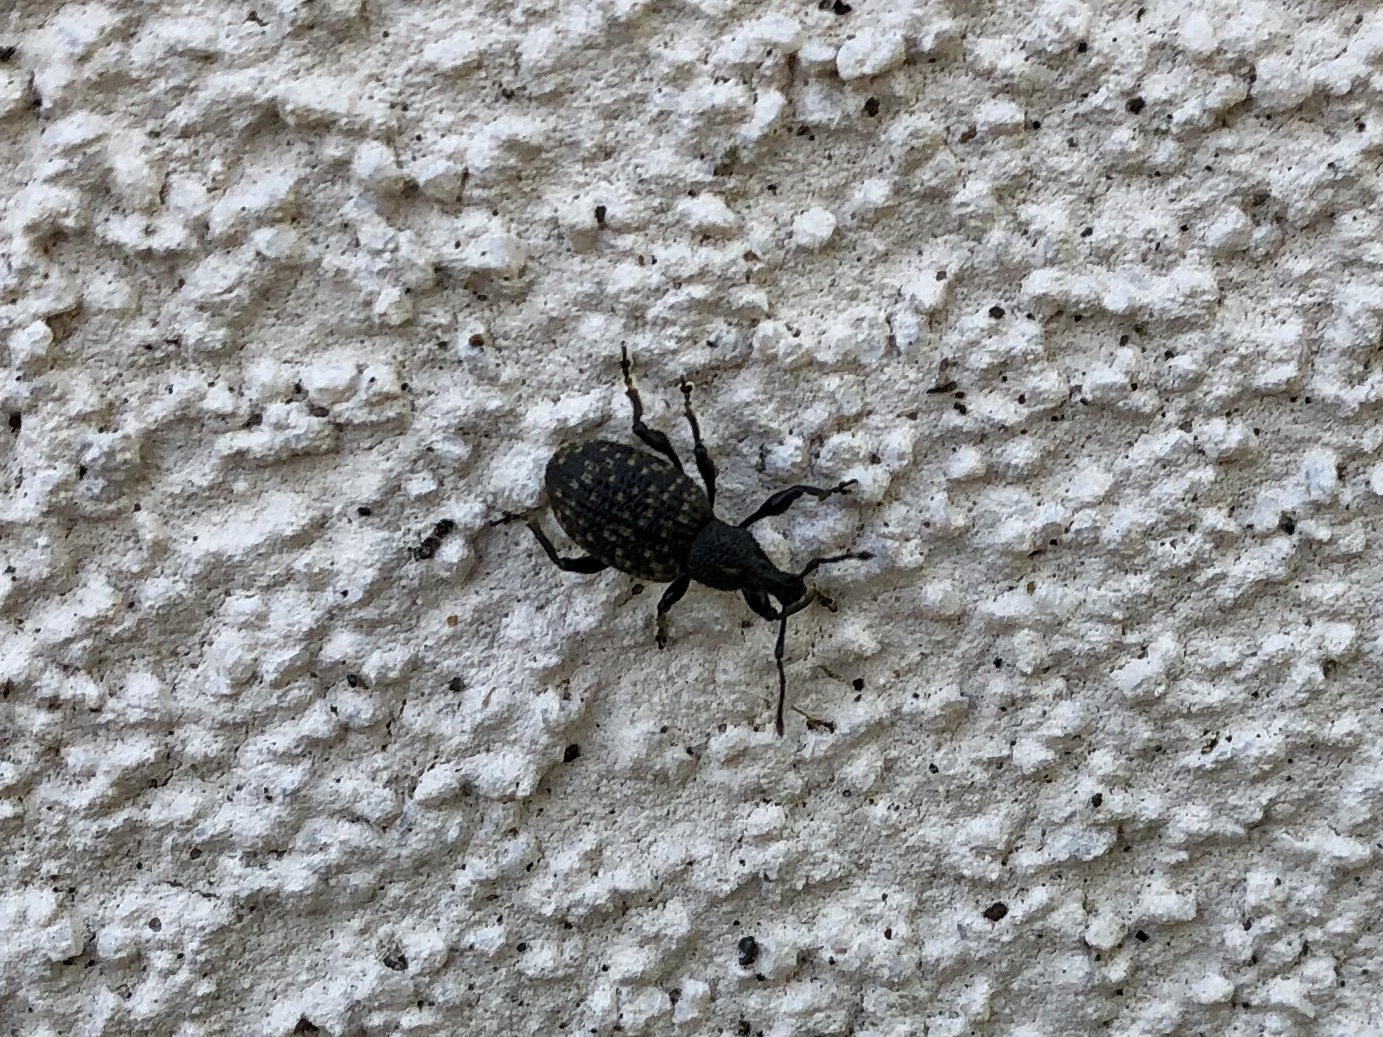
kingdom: Animalia
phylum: Arthropoda
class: Insecta
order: Coleoptera
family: Curculionidae
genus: Otiorhynchus
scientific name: Otiorhynchus sulcatus
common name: Black vine weevil
